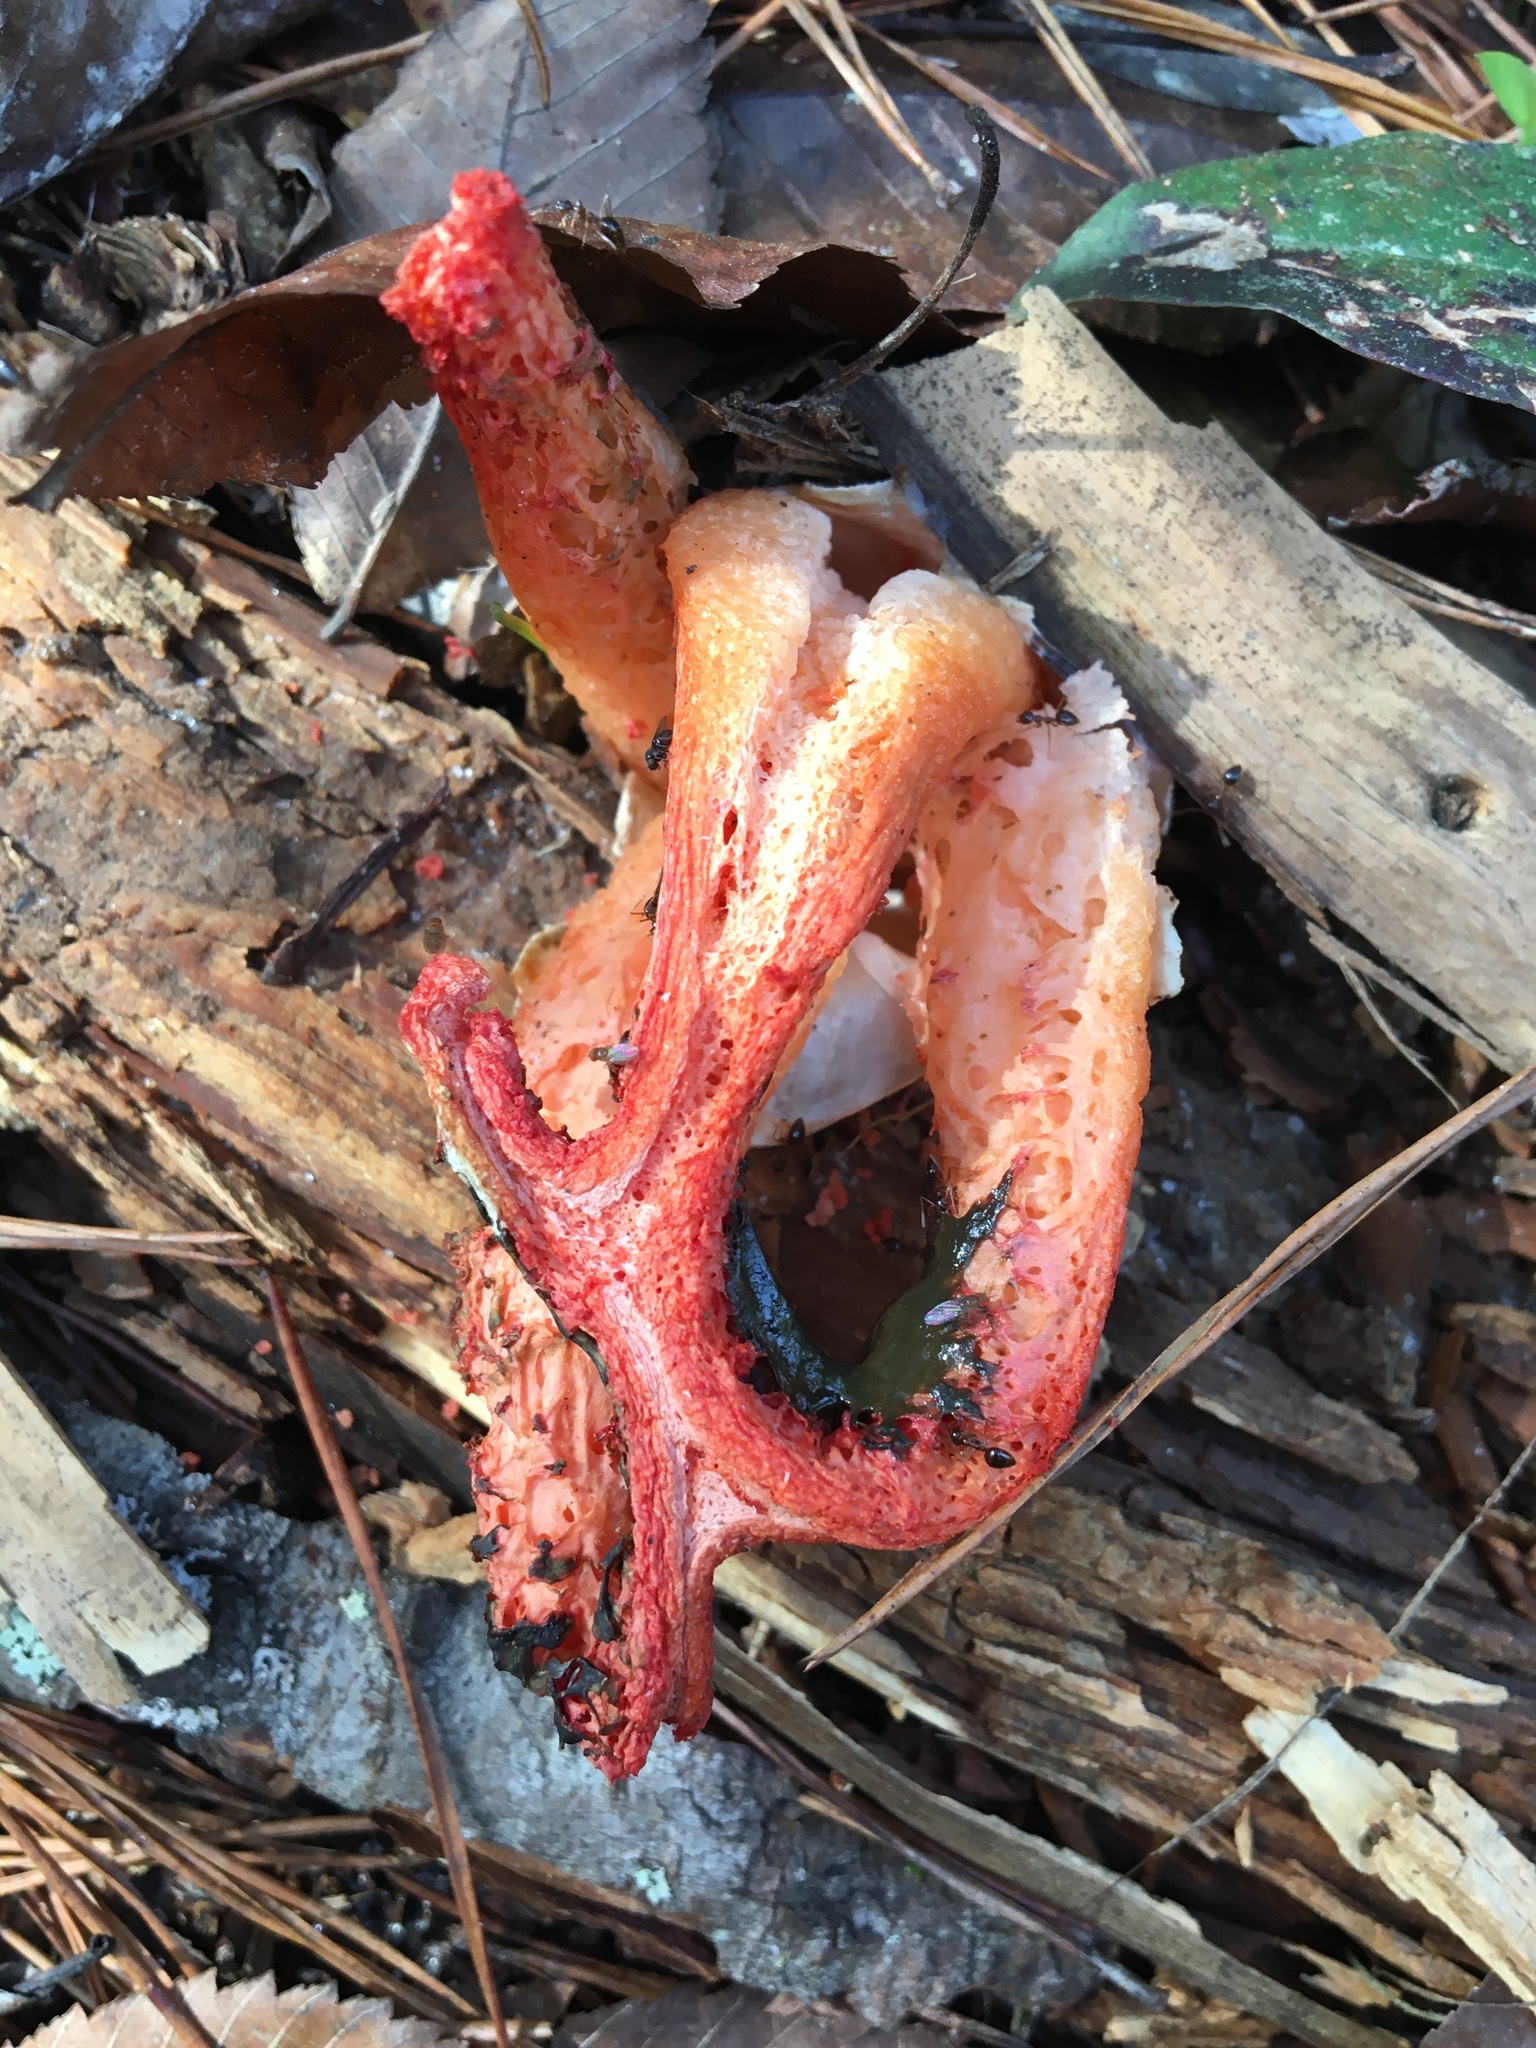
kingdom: Fungi
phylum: Basidiomycota
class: Agaricomycetes
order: Phallales
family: Phallaceae
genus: Clathrus
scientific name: Clathrus columnatus
